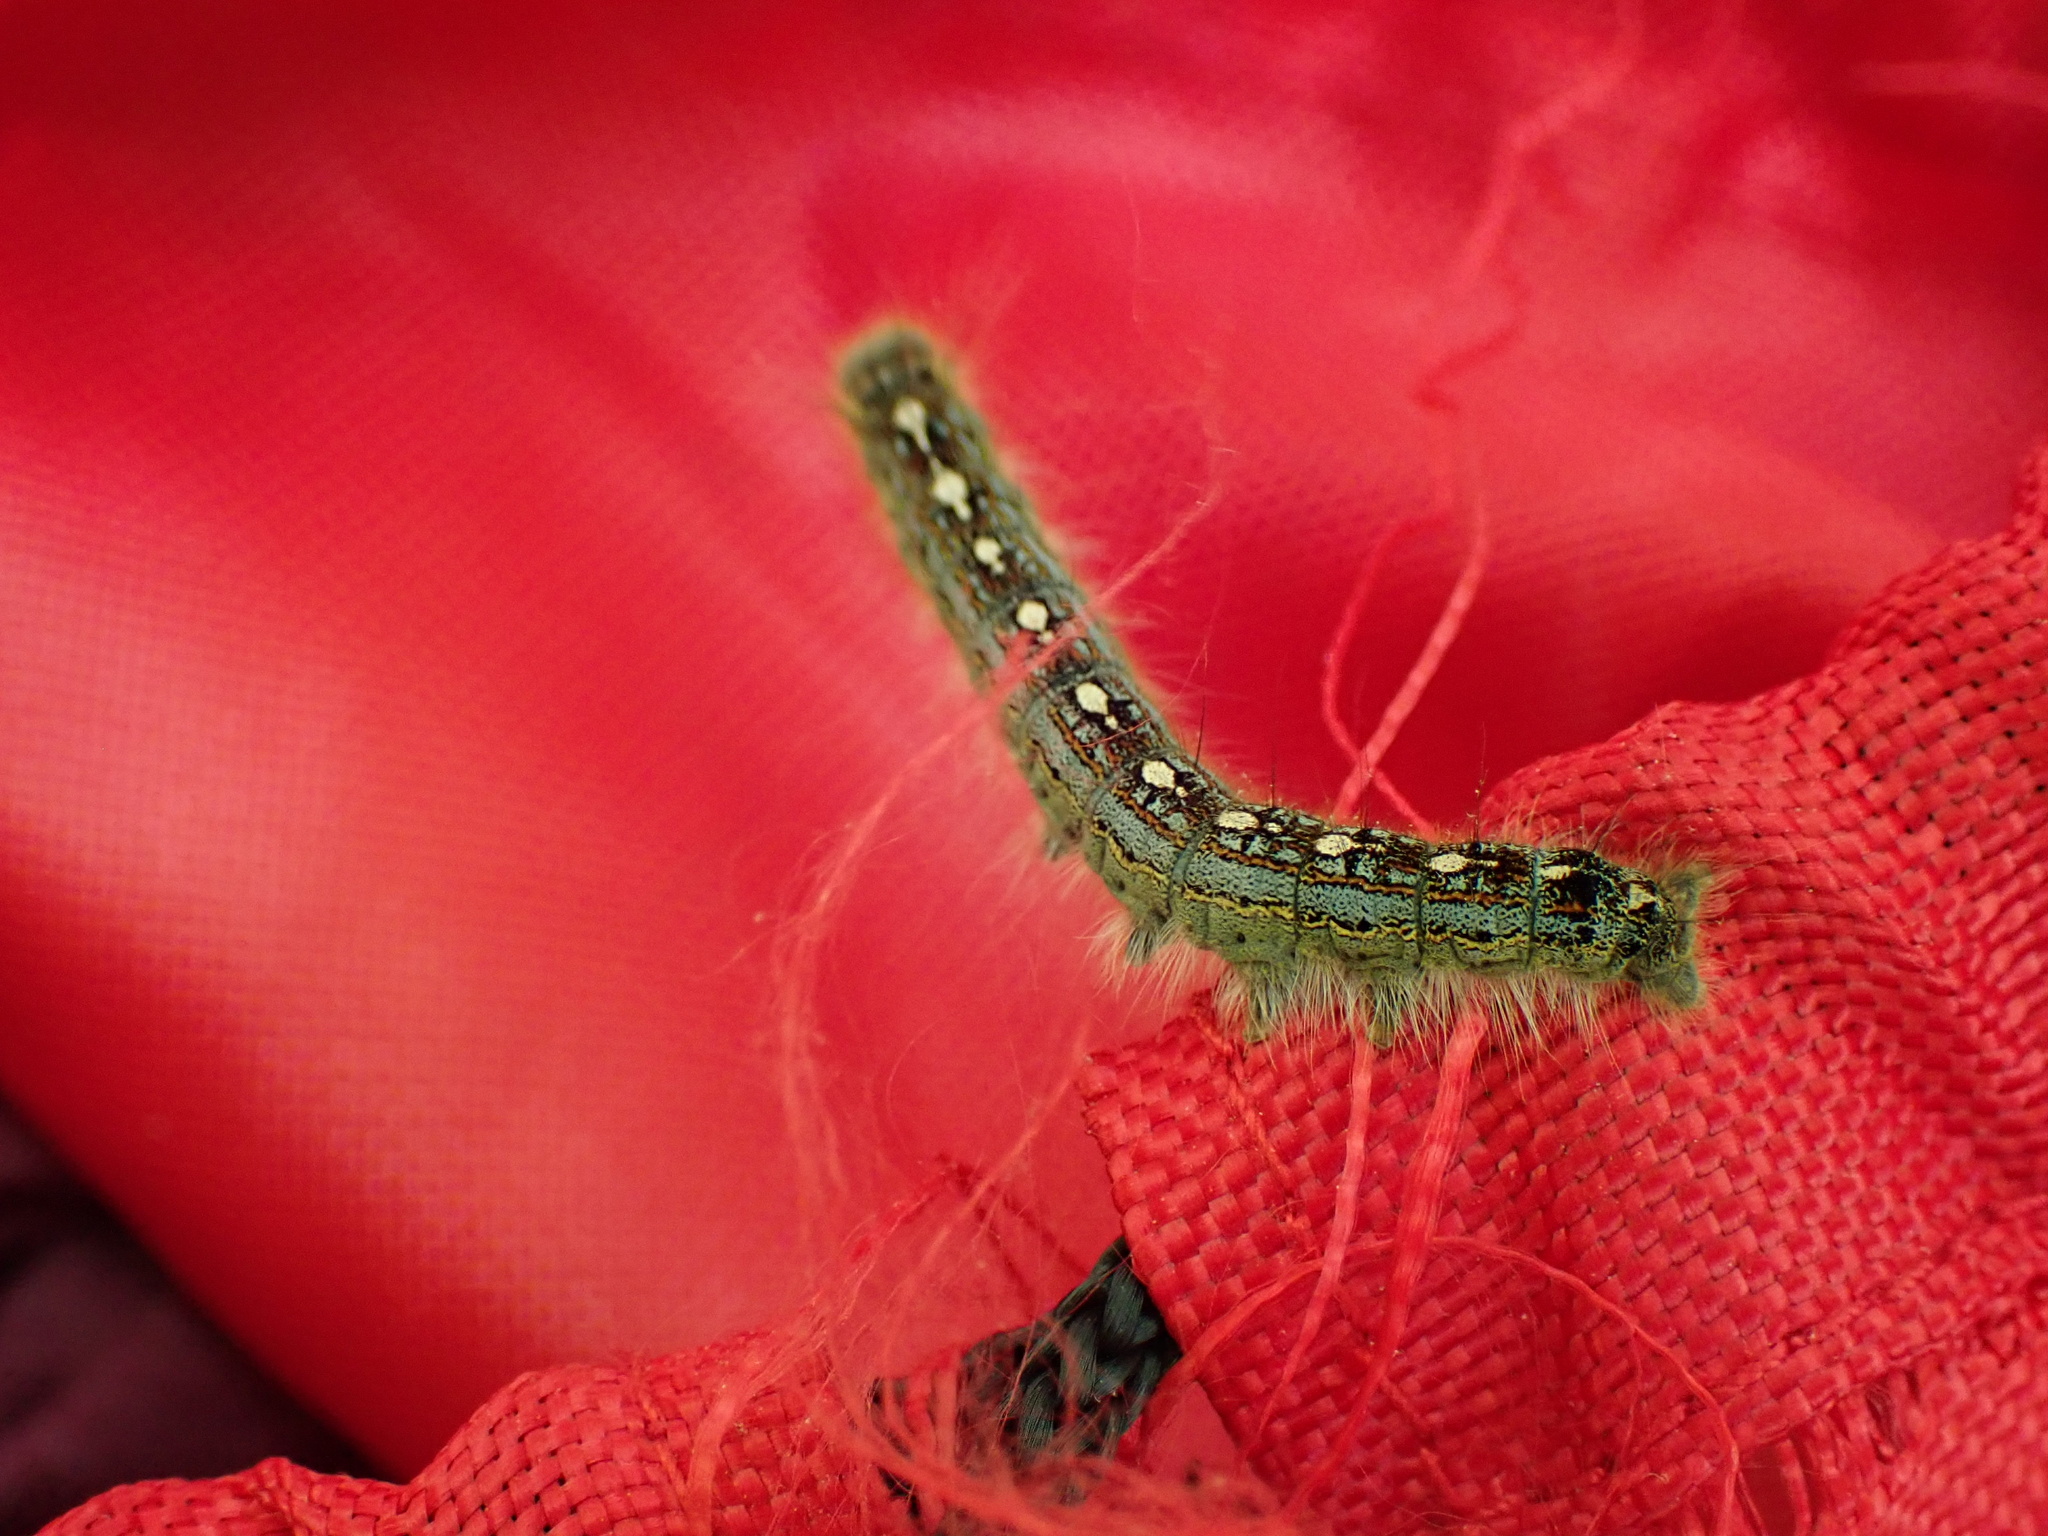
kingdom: Animalia
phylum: Arthropoda
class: Insecta
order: Lepidoptera
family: Lasiocampidae
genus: Malacosoma
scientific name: Malacosoma disstria
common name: Forest tent caterpillar
